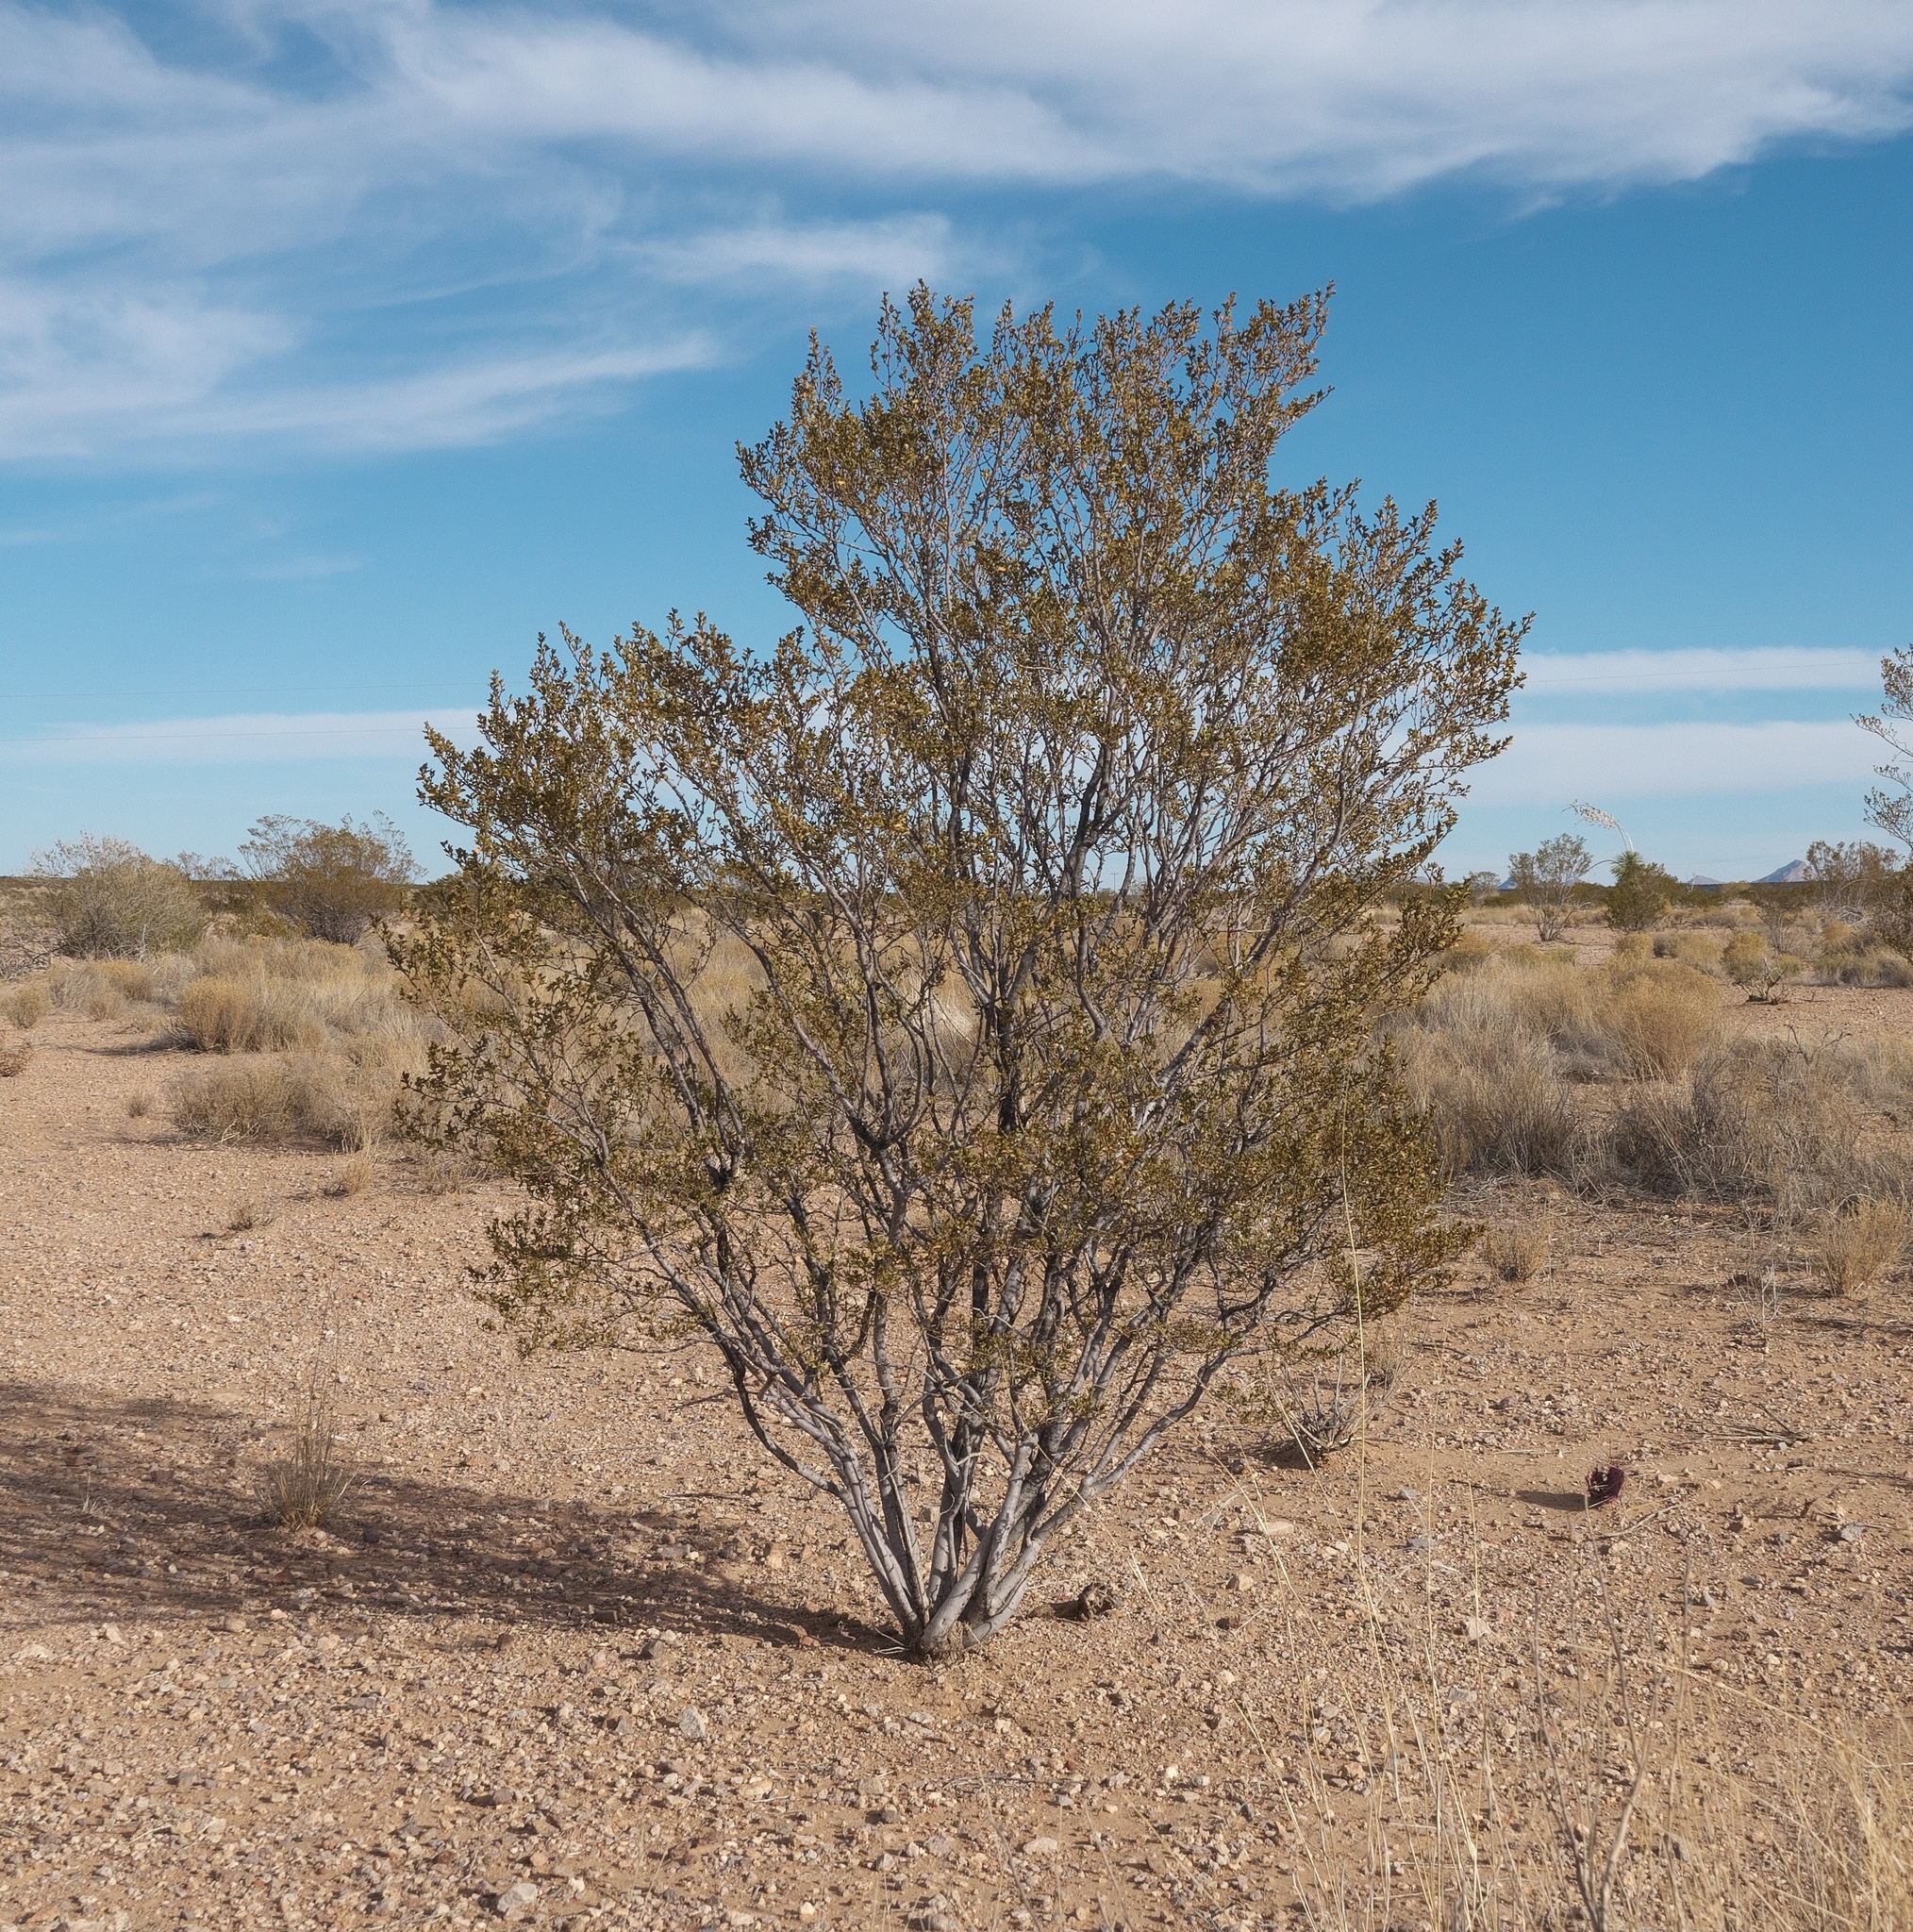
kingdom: Plantae
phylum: Tracheophyta
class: Magnoliopsida
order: Zygophyllales
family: Zygophyllaceae
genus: Larrea
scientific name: Larrea tridentata
